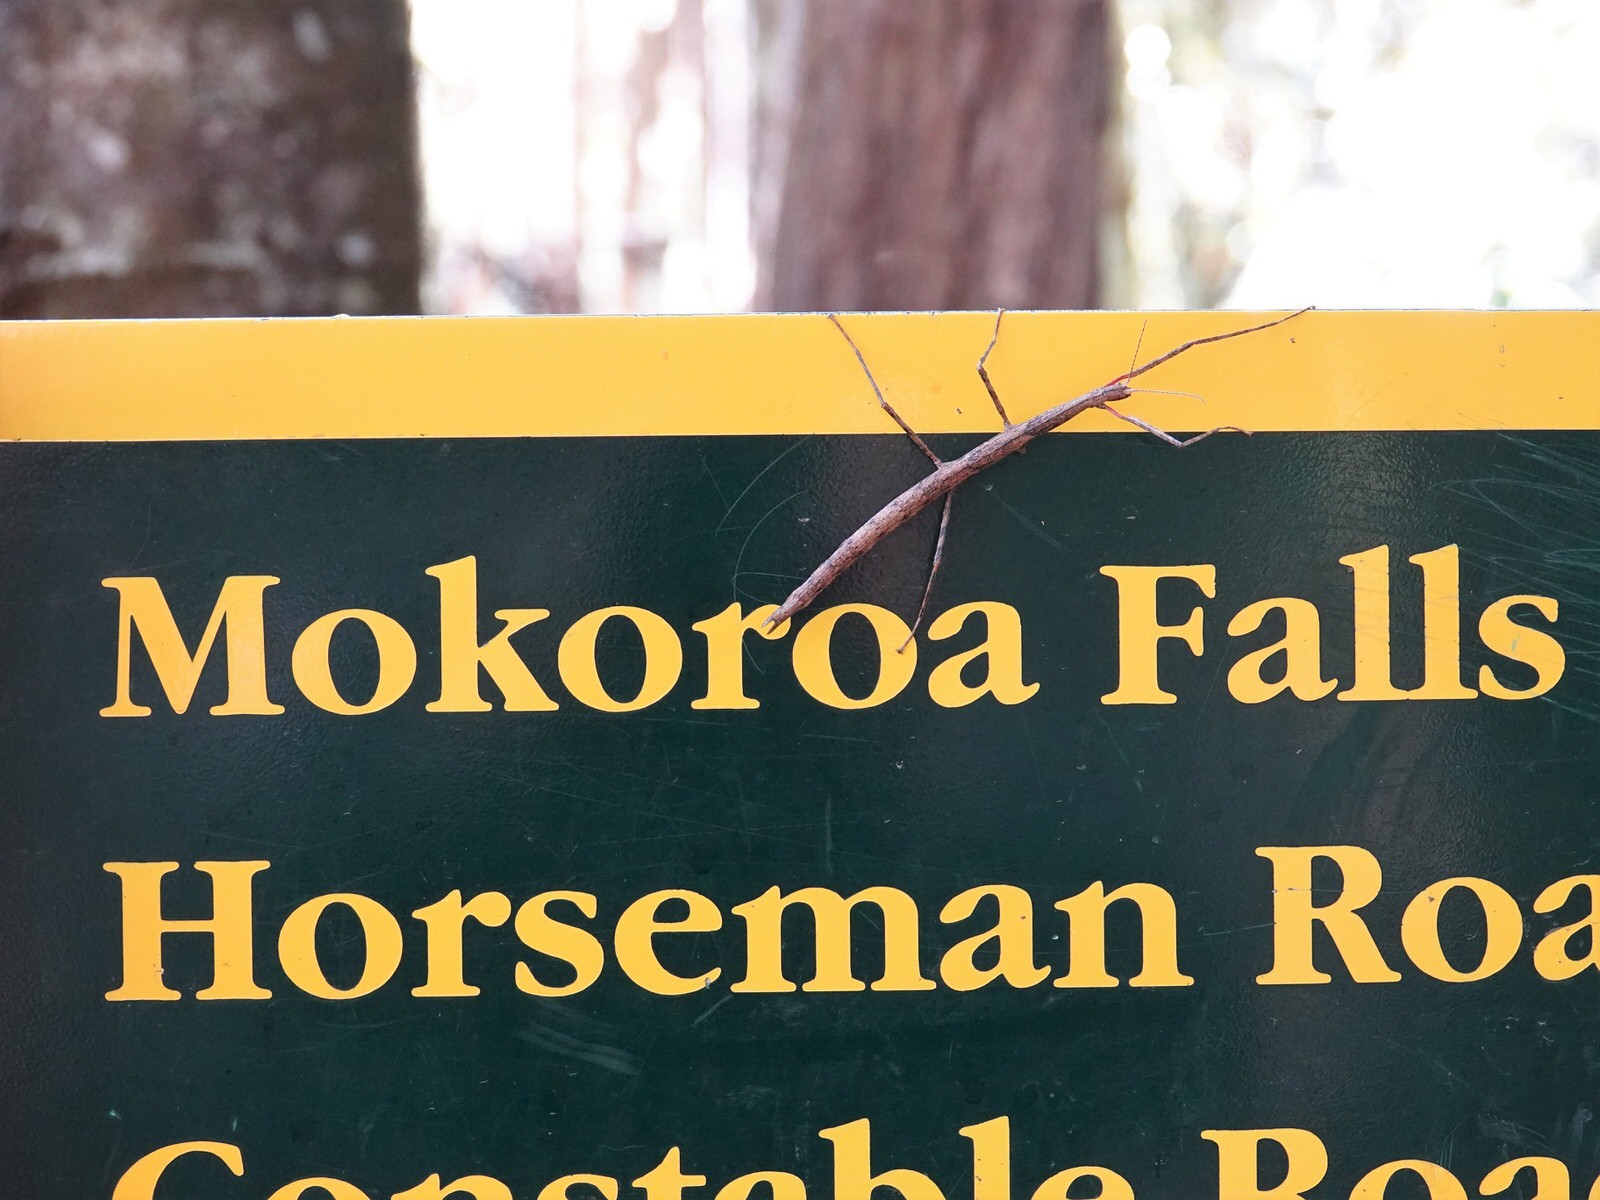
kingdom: Animalia
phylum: Arthropoda
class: Insecta
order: Phasmida
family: Phasmatidae
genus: Clitarchus
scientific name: Clitarchus hookeri
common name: Smooth stick insect
